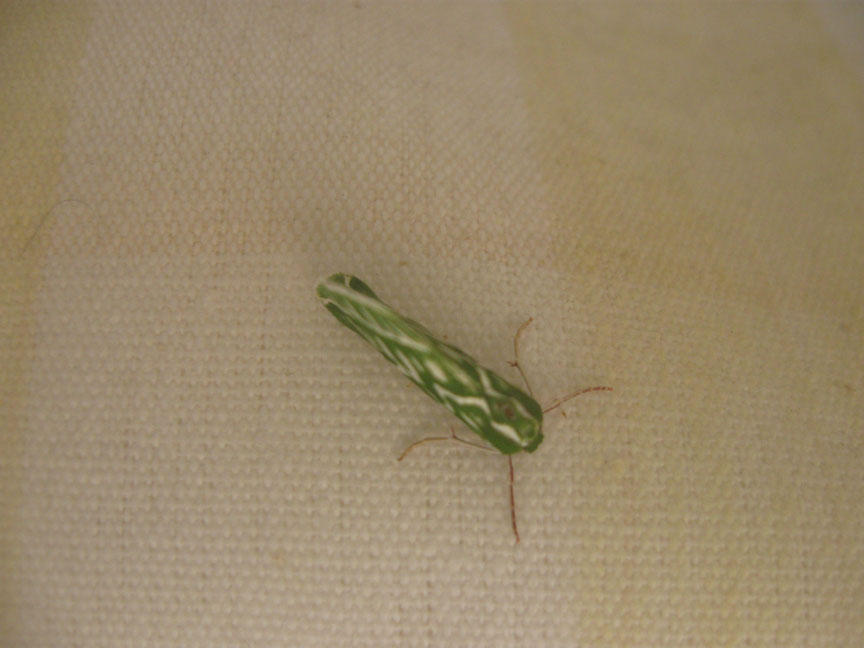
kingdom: Animalia
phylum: Arthropoda
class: Insecta
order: Lepidoptera
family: Geometridae
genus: Dichroma
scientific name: Dichroma equestralis
